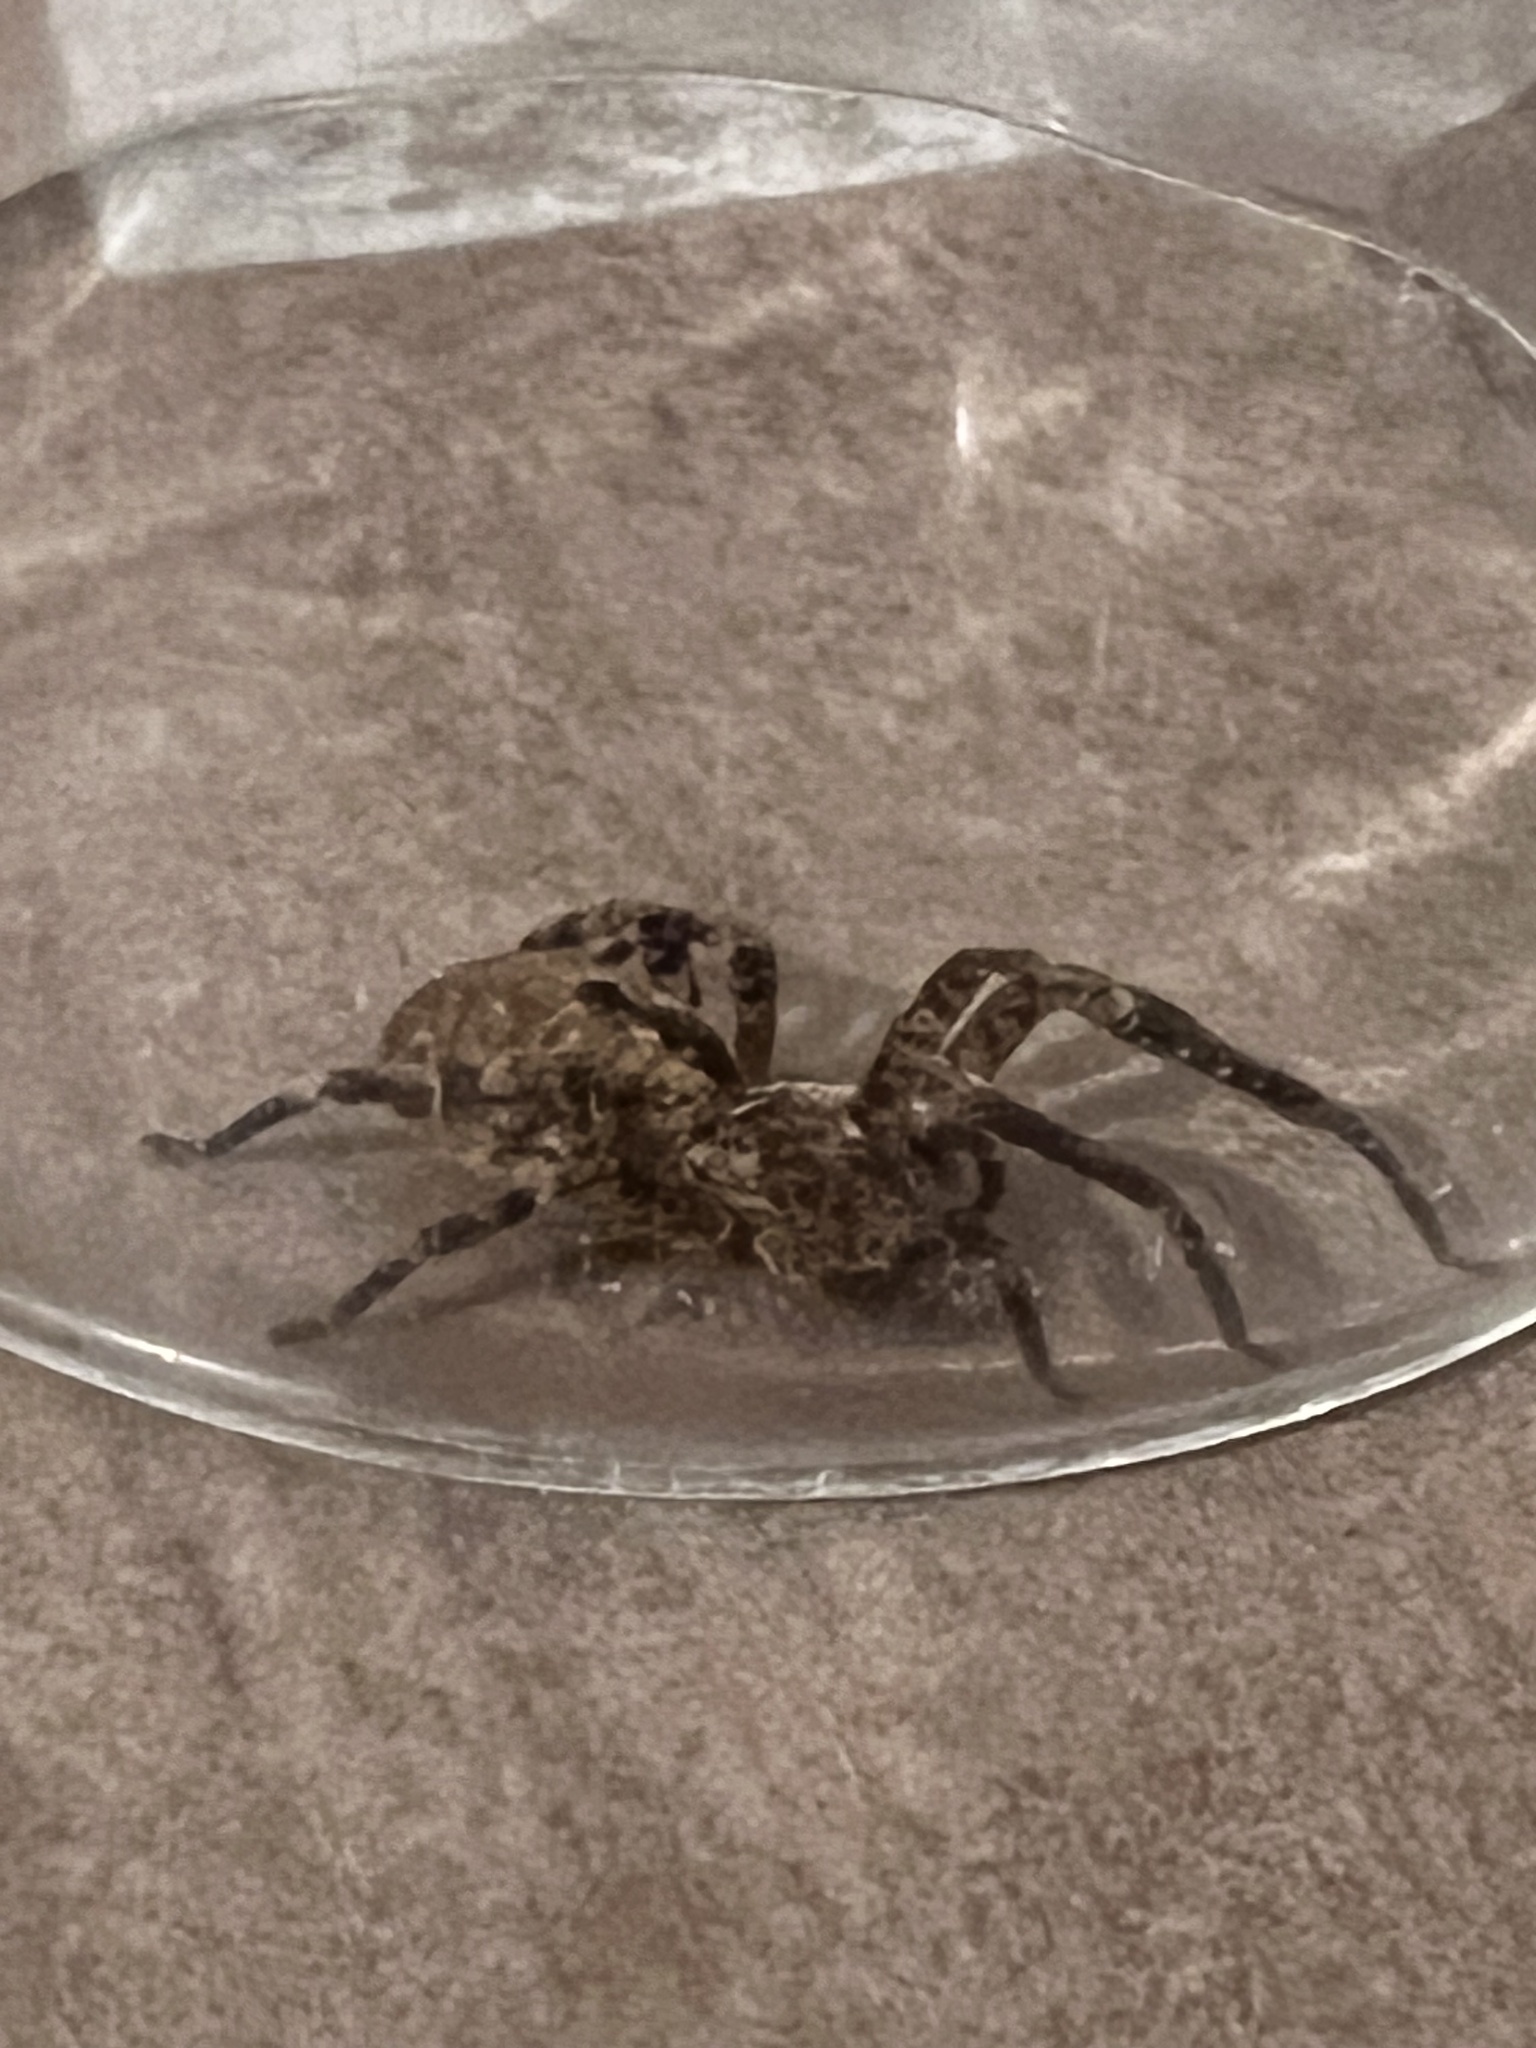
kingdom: Animalia
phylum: Arthropoda
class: Arachnida
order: Araneae
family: Zoropsidae
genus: Zoropsis
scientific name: Zoropsis spinimana
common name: Zoropsid spider
